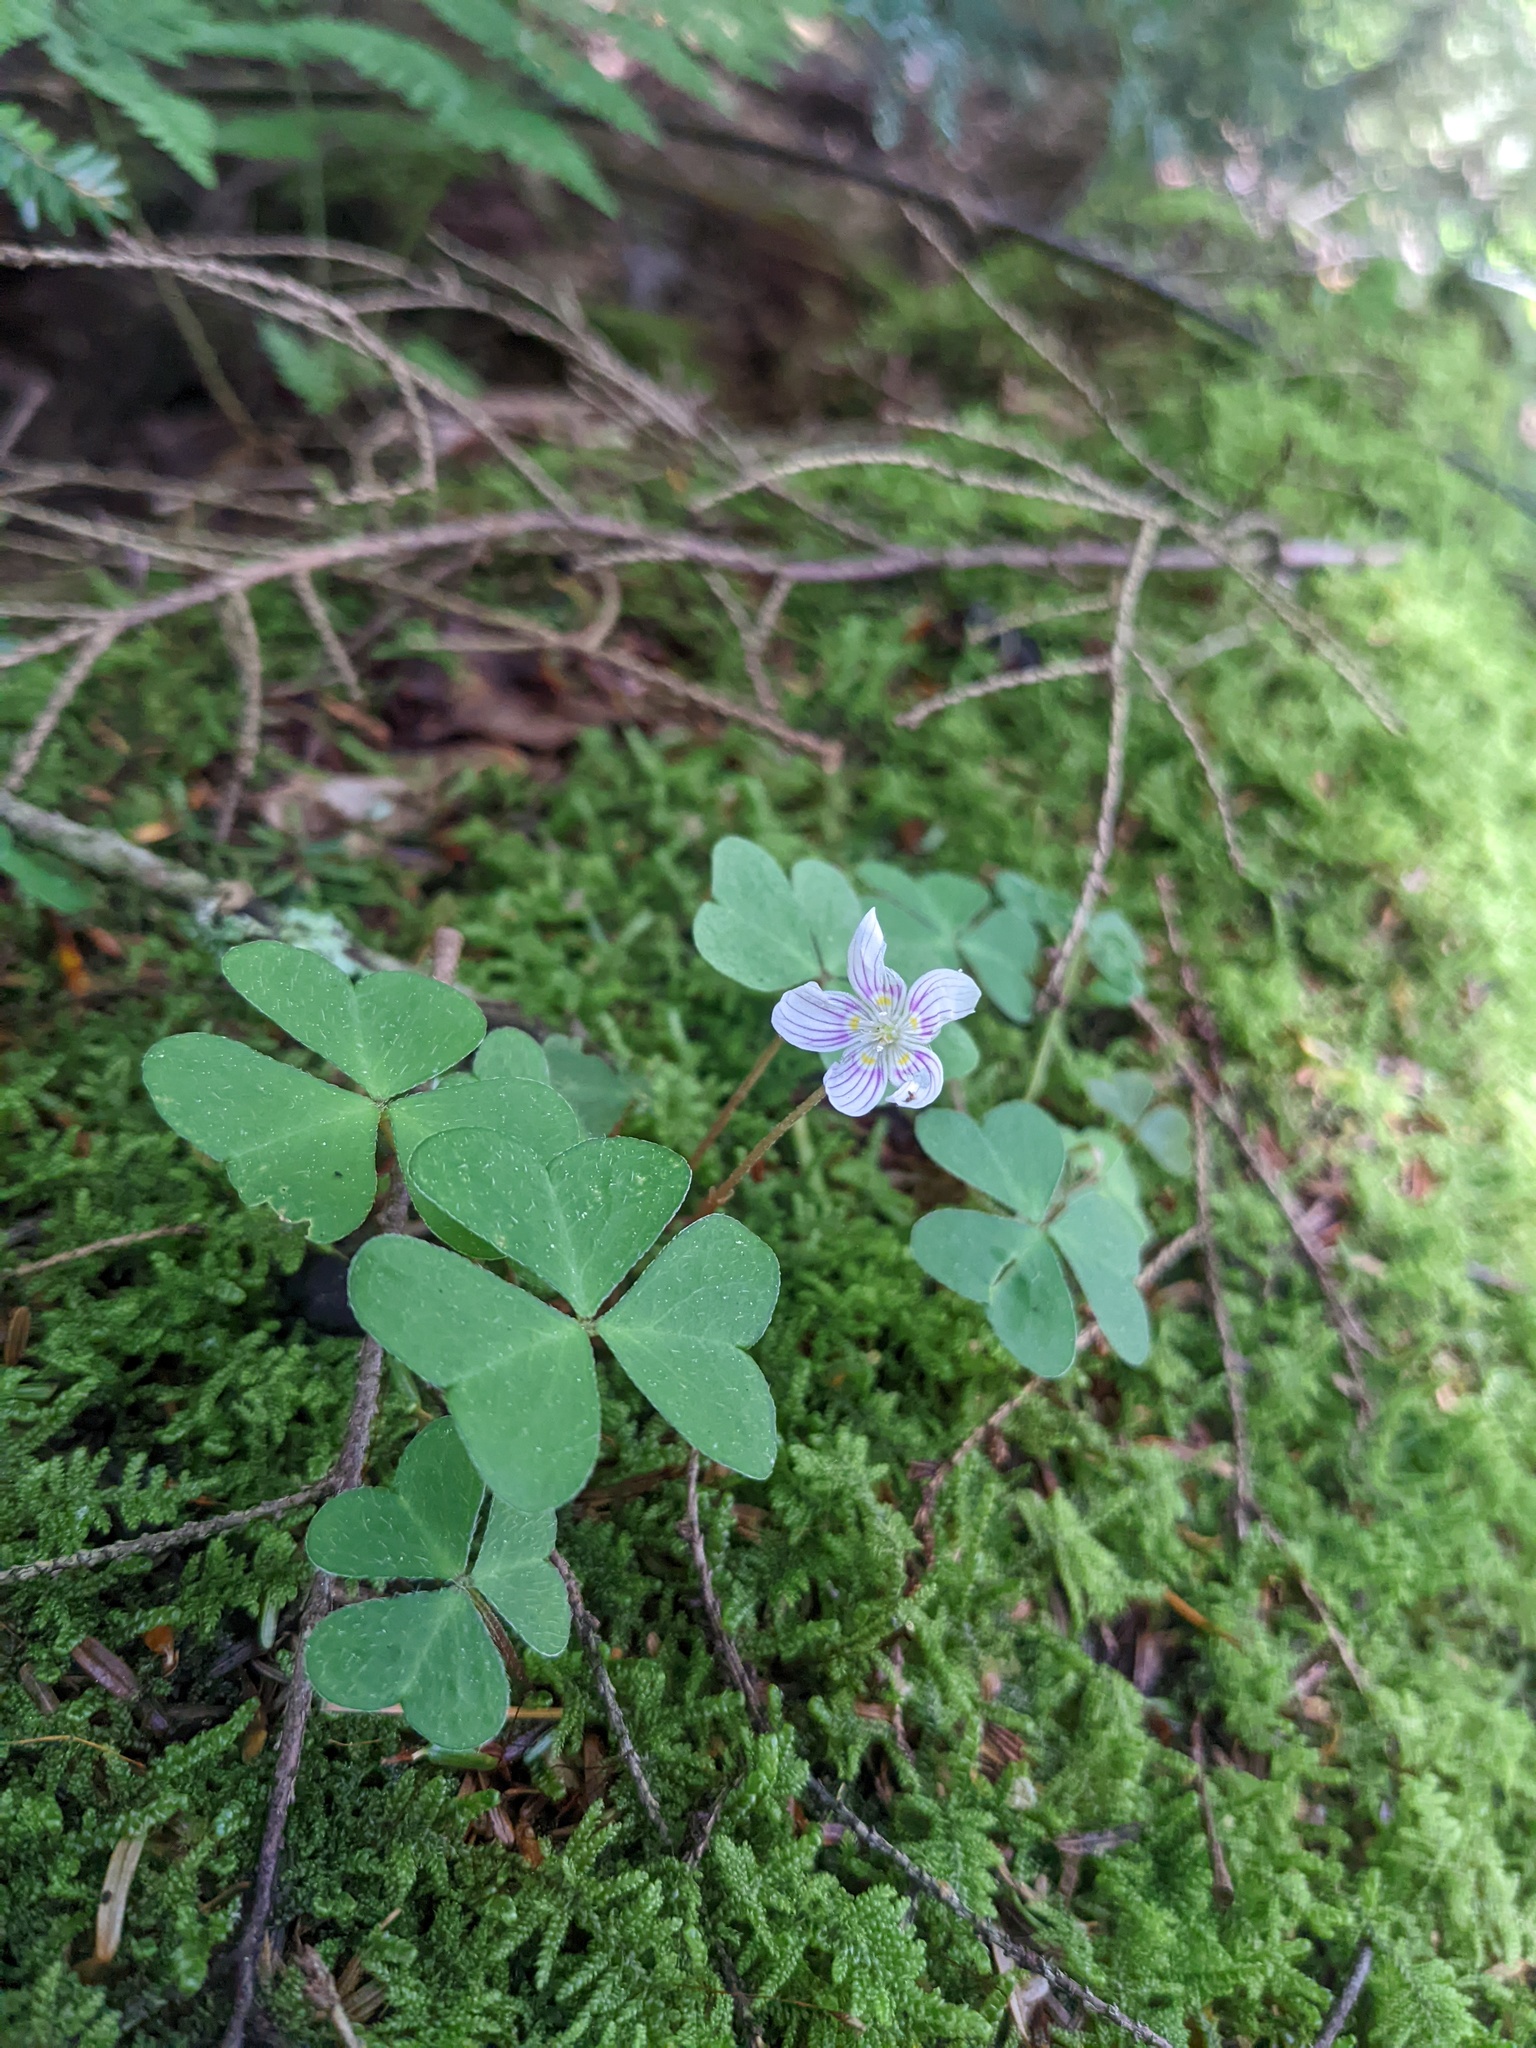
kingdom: Plantae
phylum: Tracheophyta
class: Magnoliopsida
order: Oxalidales
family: Oxalidaceae
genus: Oxalis
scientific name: Oxalis montana
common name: American wood-sorrel
